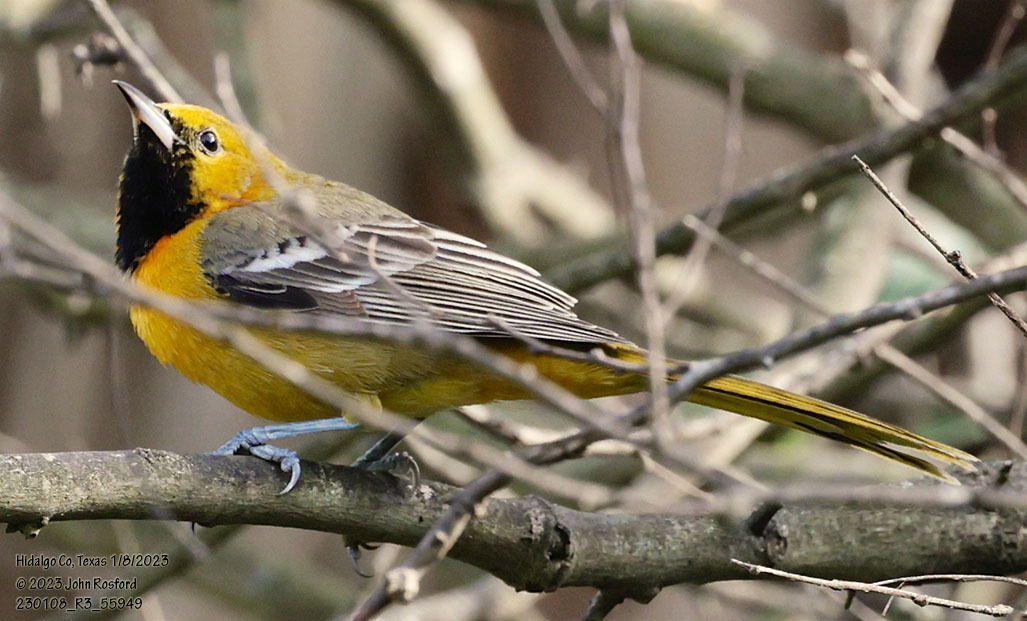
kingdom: Animalia
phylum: Chordata
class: Aves
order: Passeriformes
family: Icteridae
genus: Icterus
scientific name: Icterus cucullatus
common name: Hooded oriole
